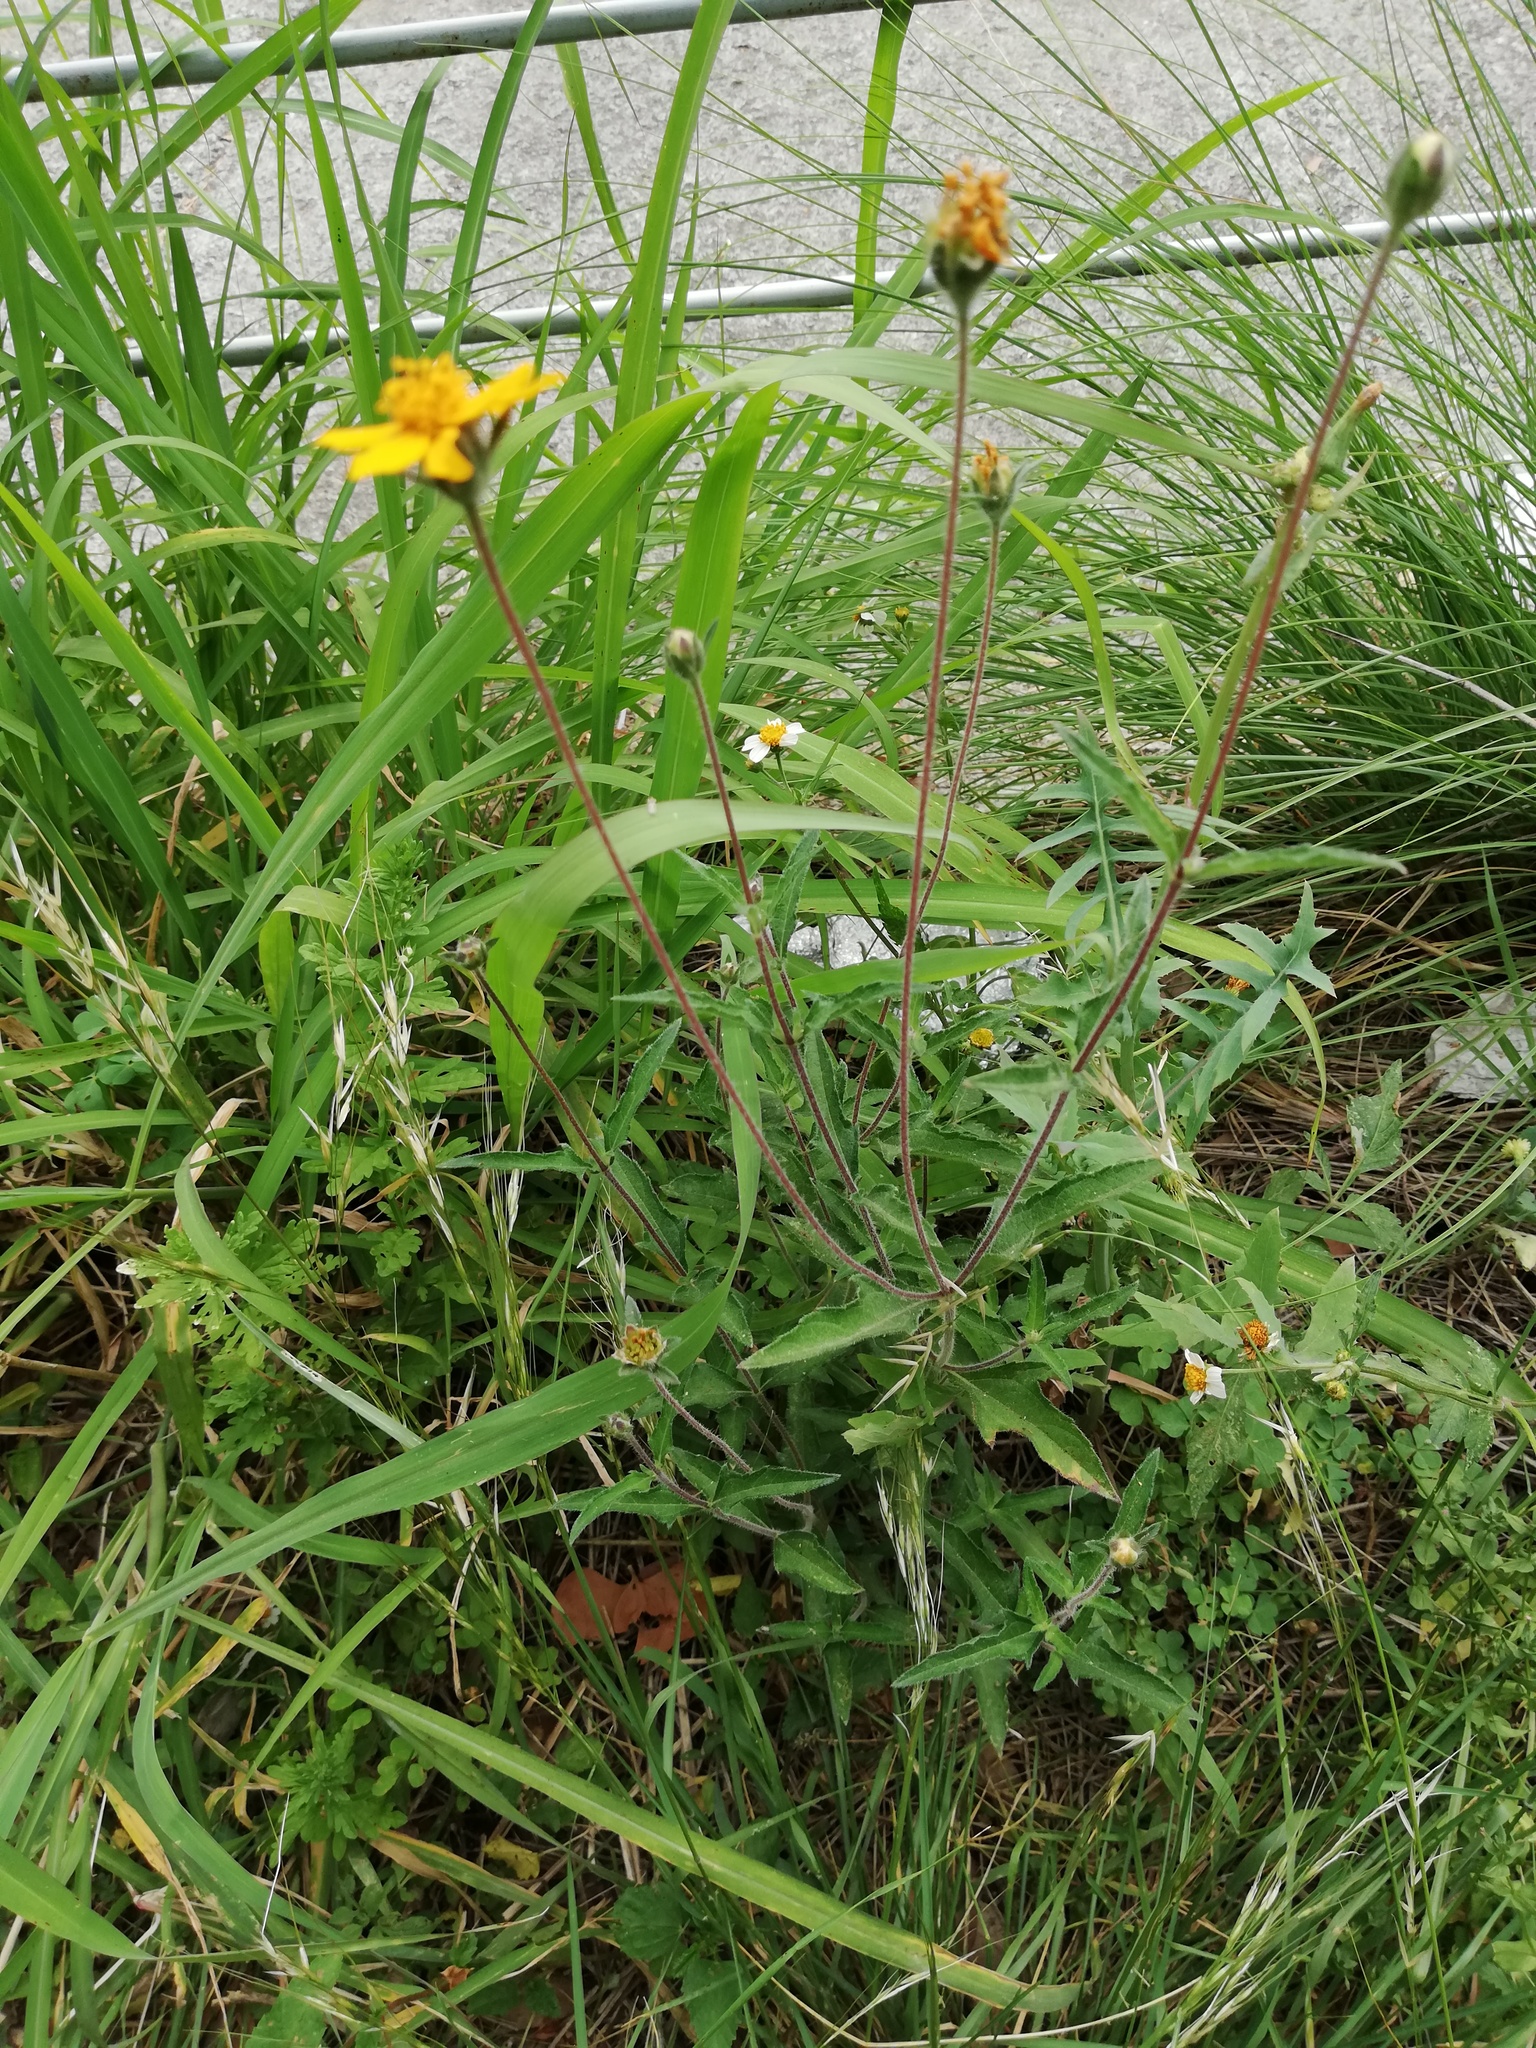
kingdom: Plantae
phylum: Tracheophyta
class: Magnoliopsida
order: Asterales
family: Asteraceae
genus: Wedelia
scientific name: Wedelia acapulcensis
